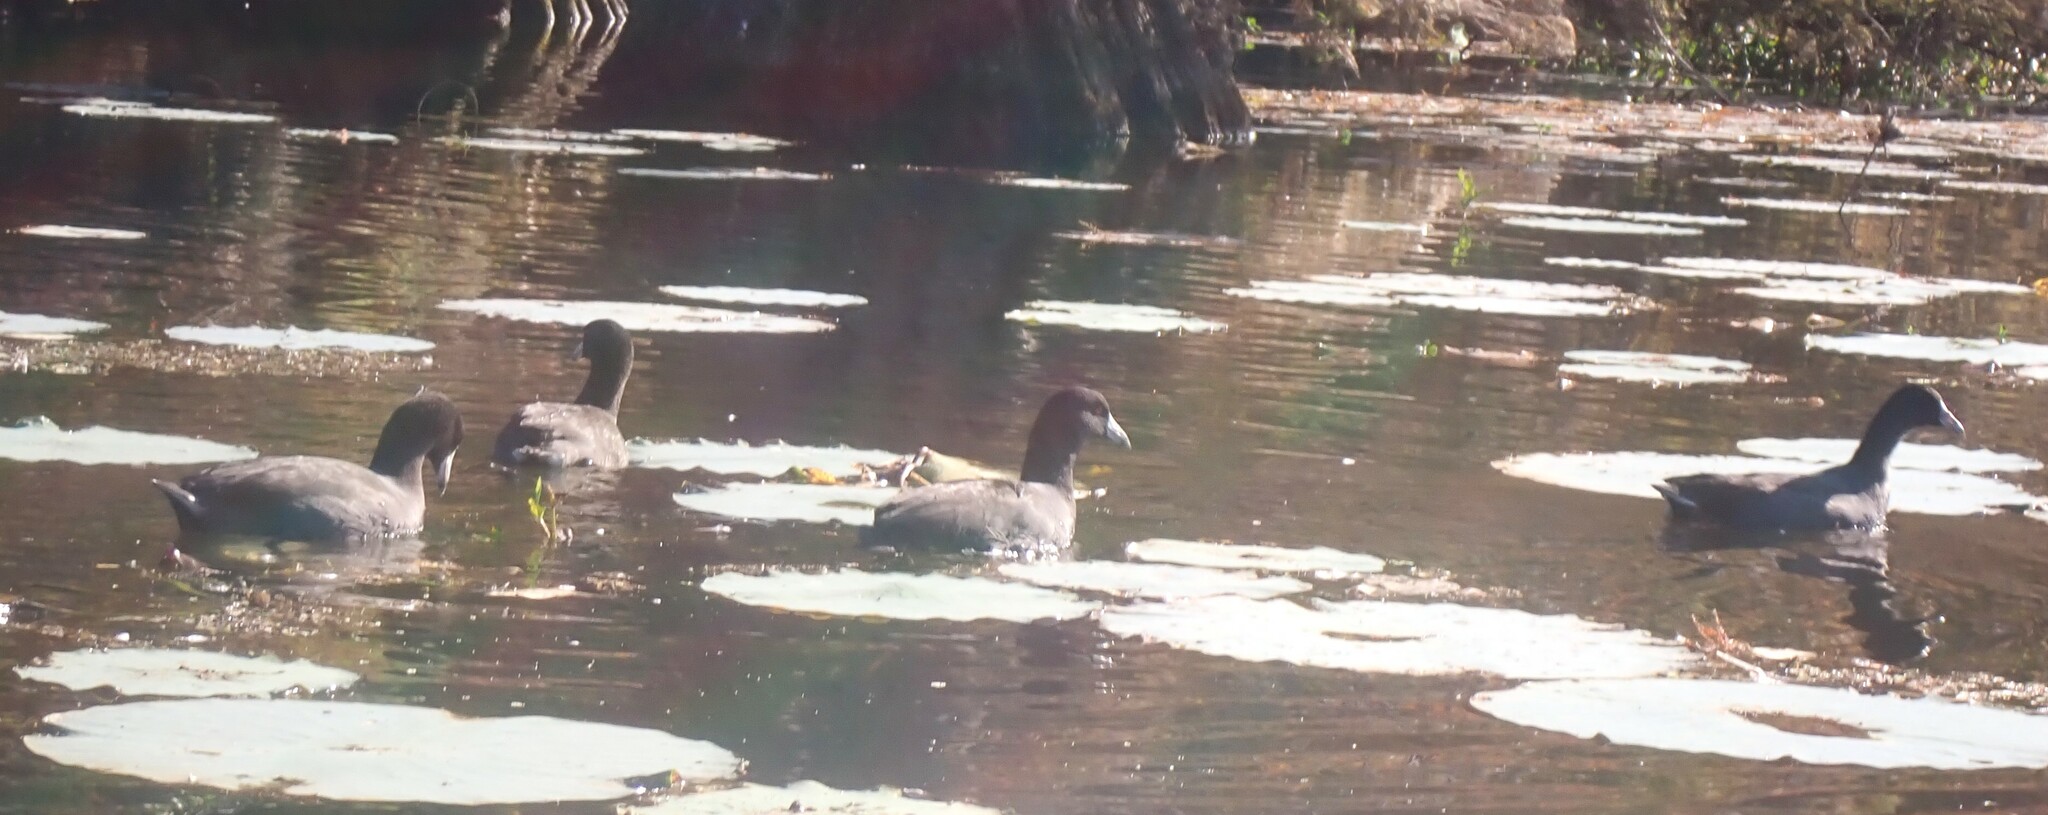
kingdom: Animalia
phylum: Chordata
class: Aves
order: Gruiformes
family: Rallidae
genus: Fulica
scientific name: Fulica americana
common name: American coot
